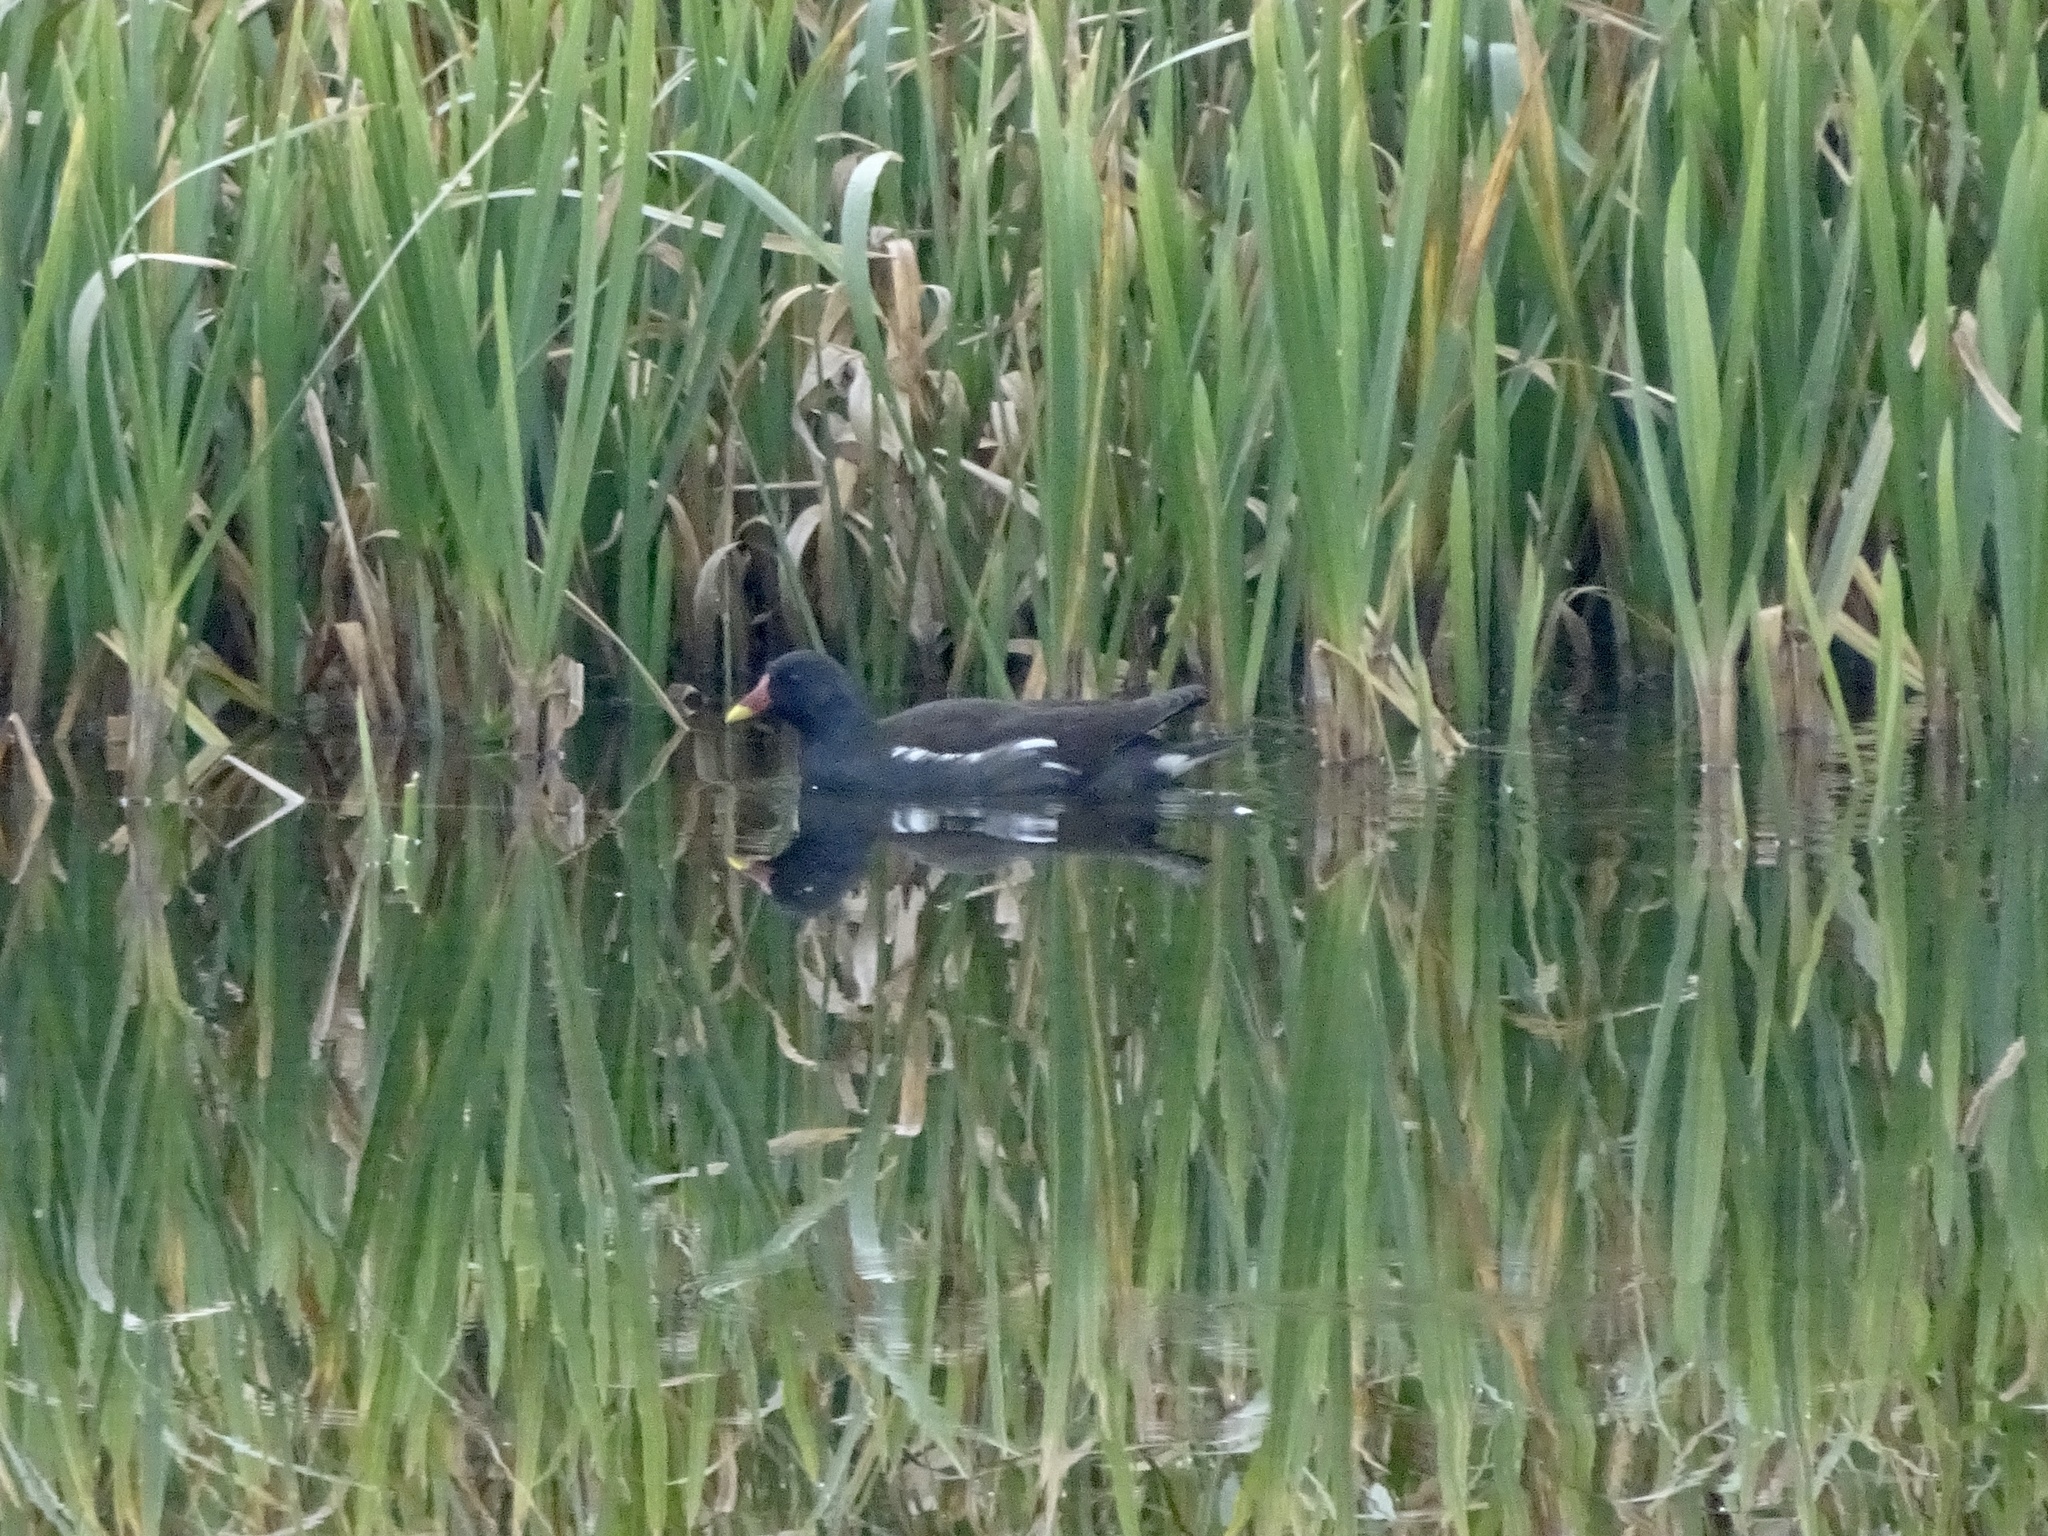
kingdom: Animalia
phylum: Chordata
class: Aves
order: Gruiformes
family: Rallidae
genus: Gallinula
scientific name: Gallinula chloropus
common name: Common moorhen
